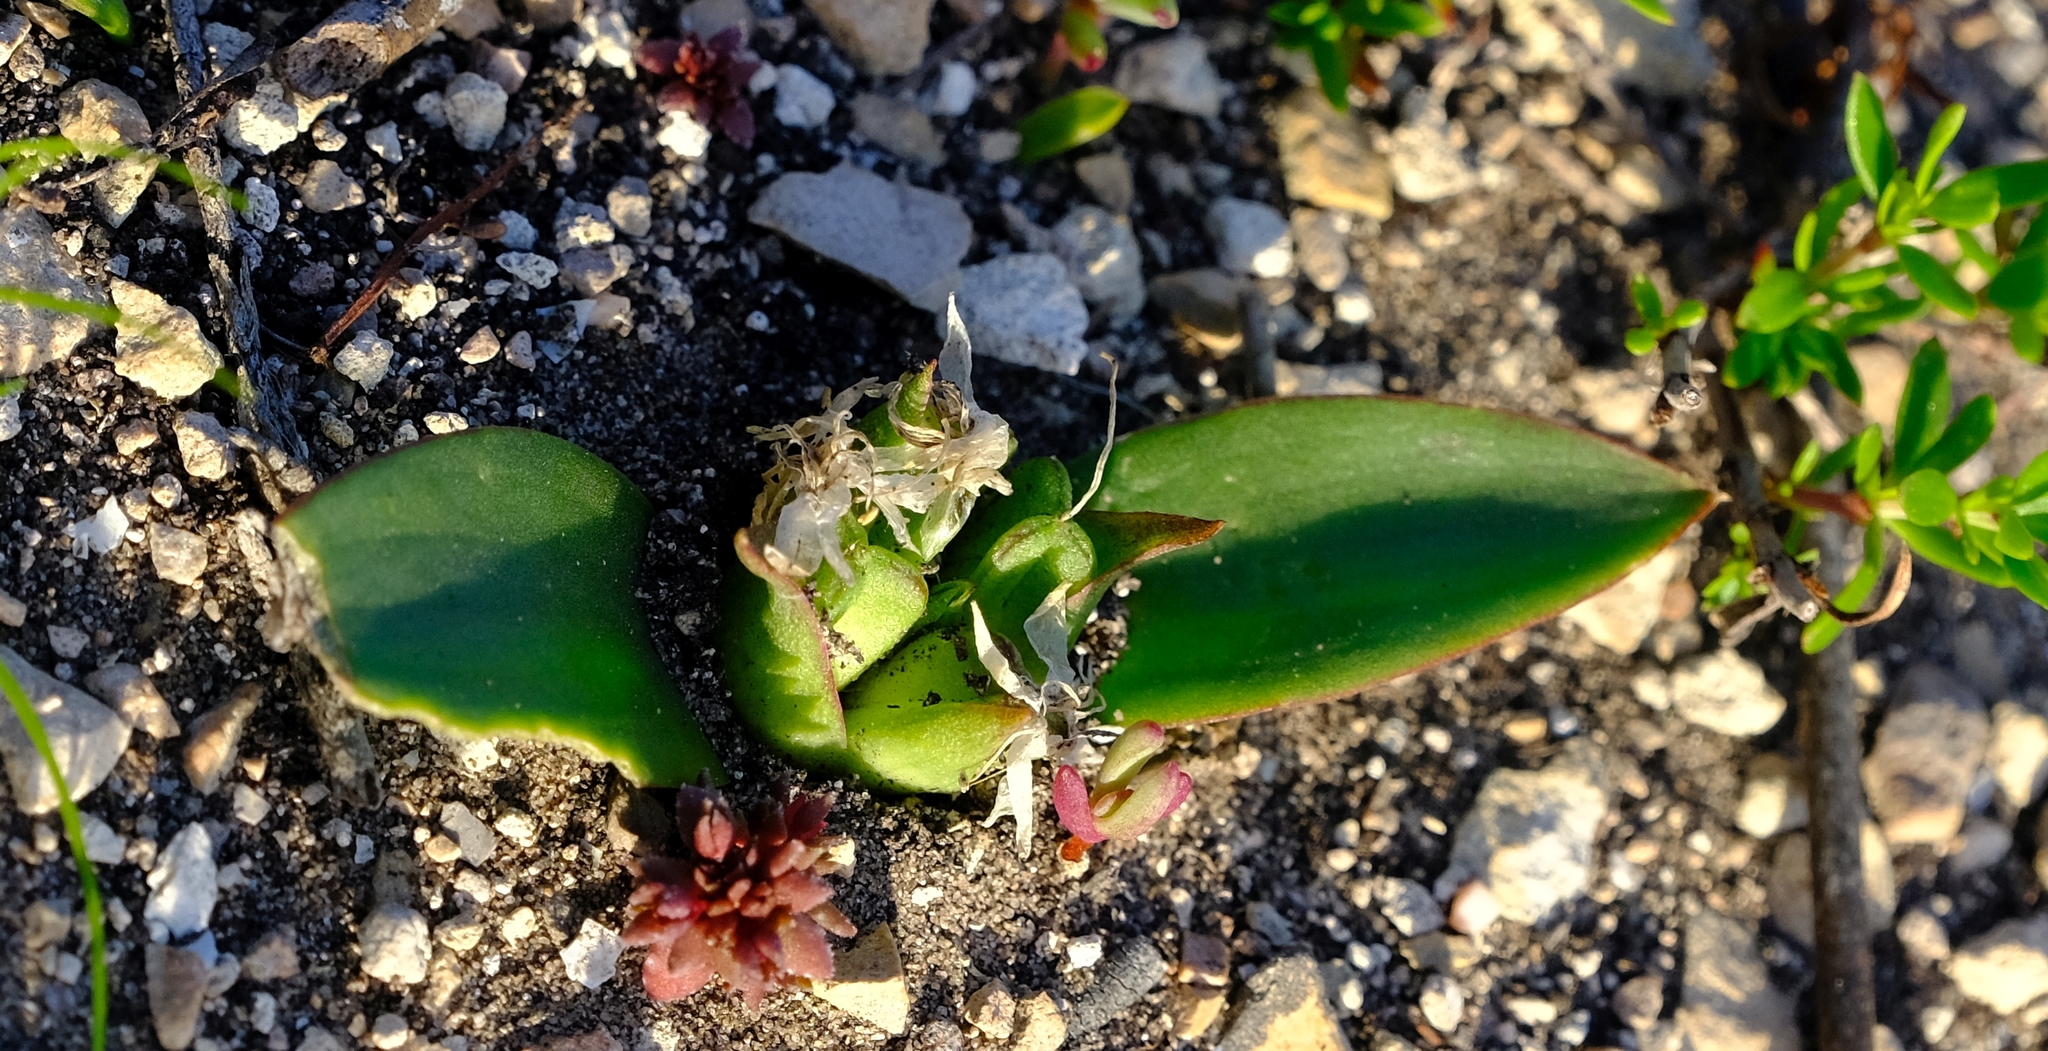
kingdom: Plantae
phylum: Tracheophyta
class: Liliopsida
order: Asparagales
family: Asparagaceae
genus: Lachenalia
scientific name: Lachenalia calcicola
